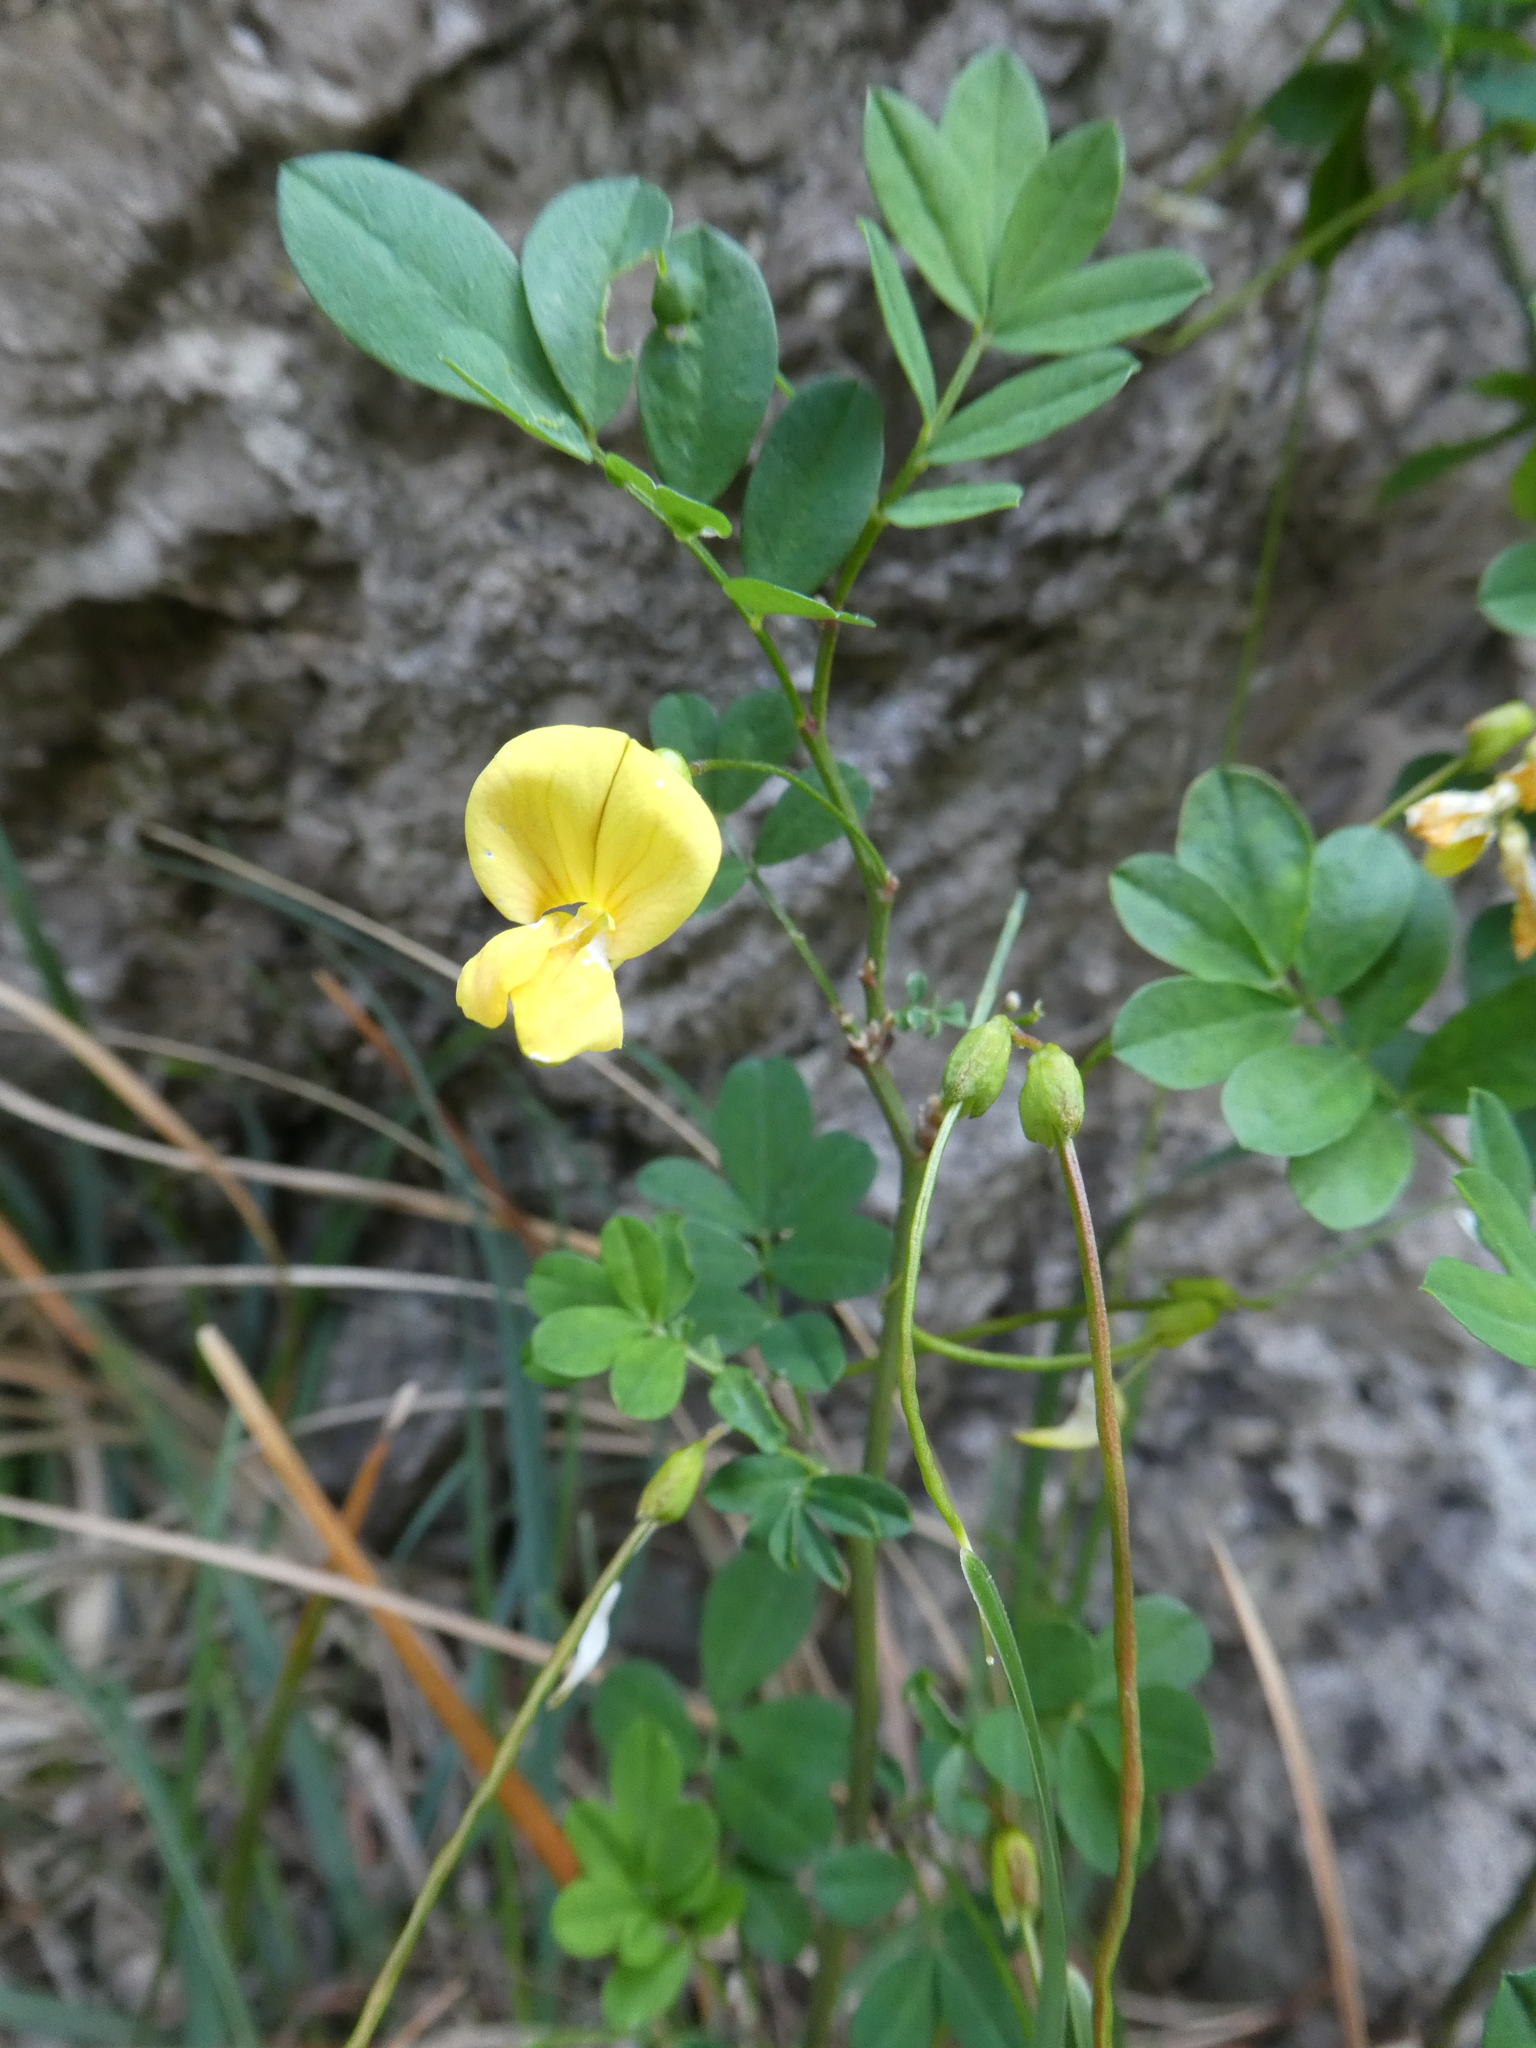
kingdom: Plantae
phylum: Tracheophyta
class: Magnoliopsida
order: Fabales
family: Fabaceae
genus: Hippocrepis
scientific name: Hippocrepis emerus
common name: Scorpion senna
